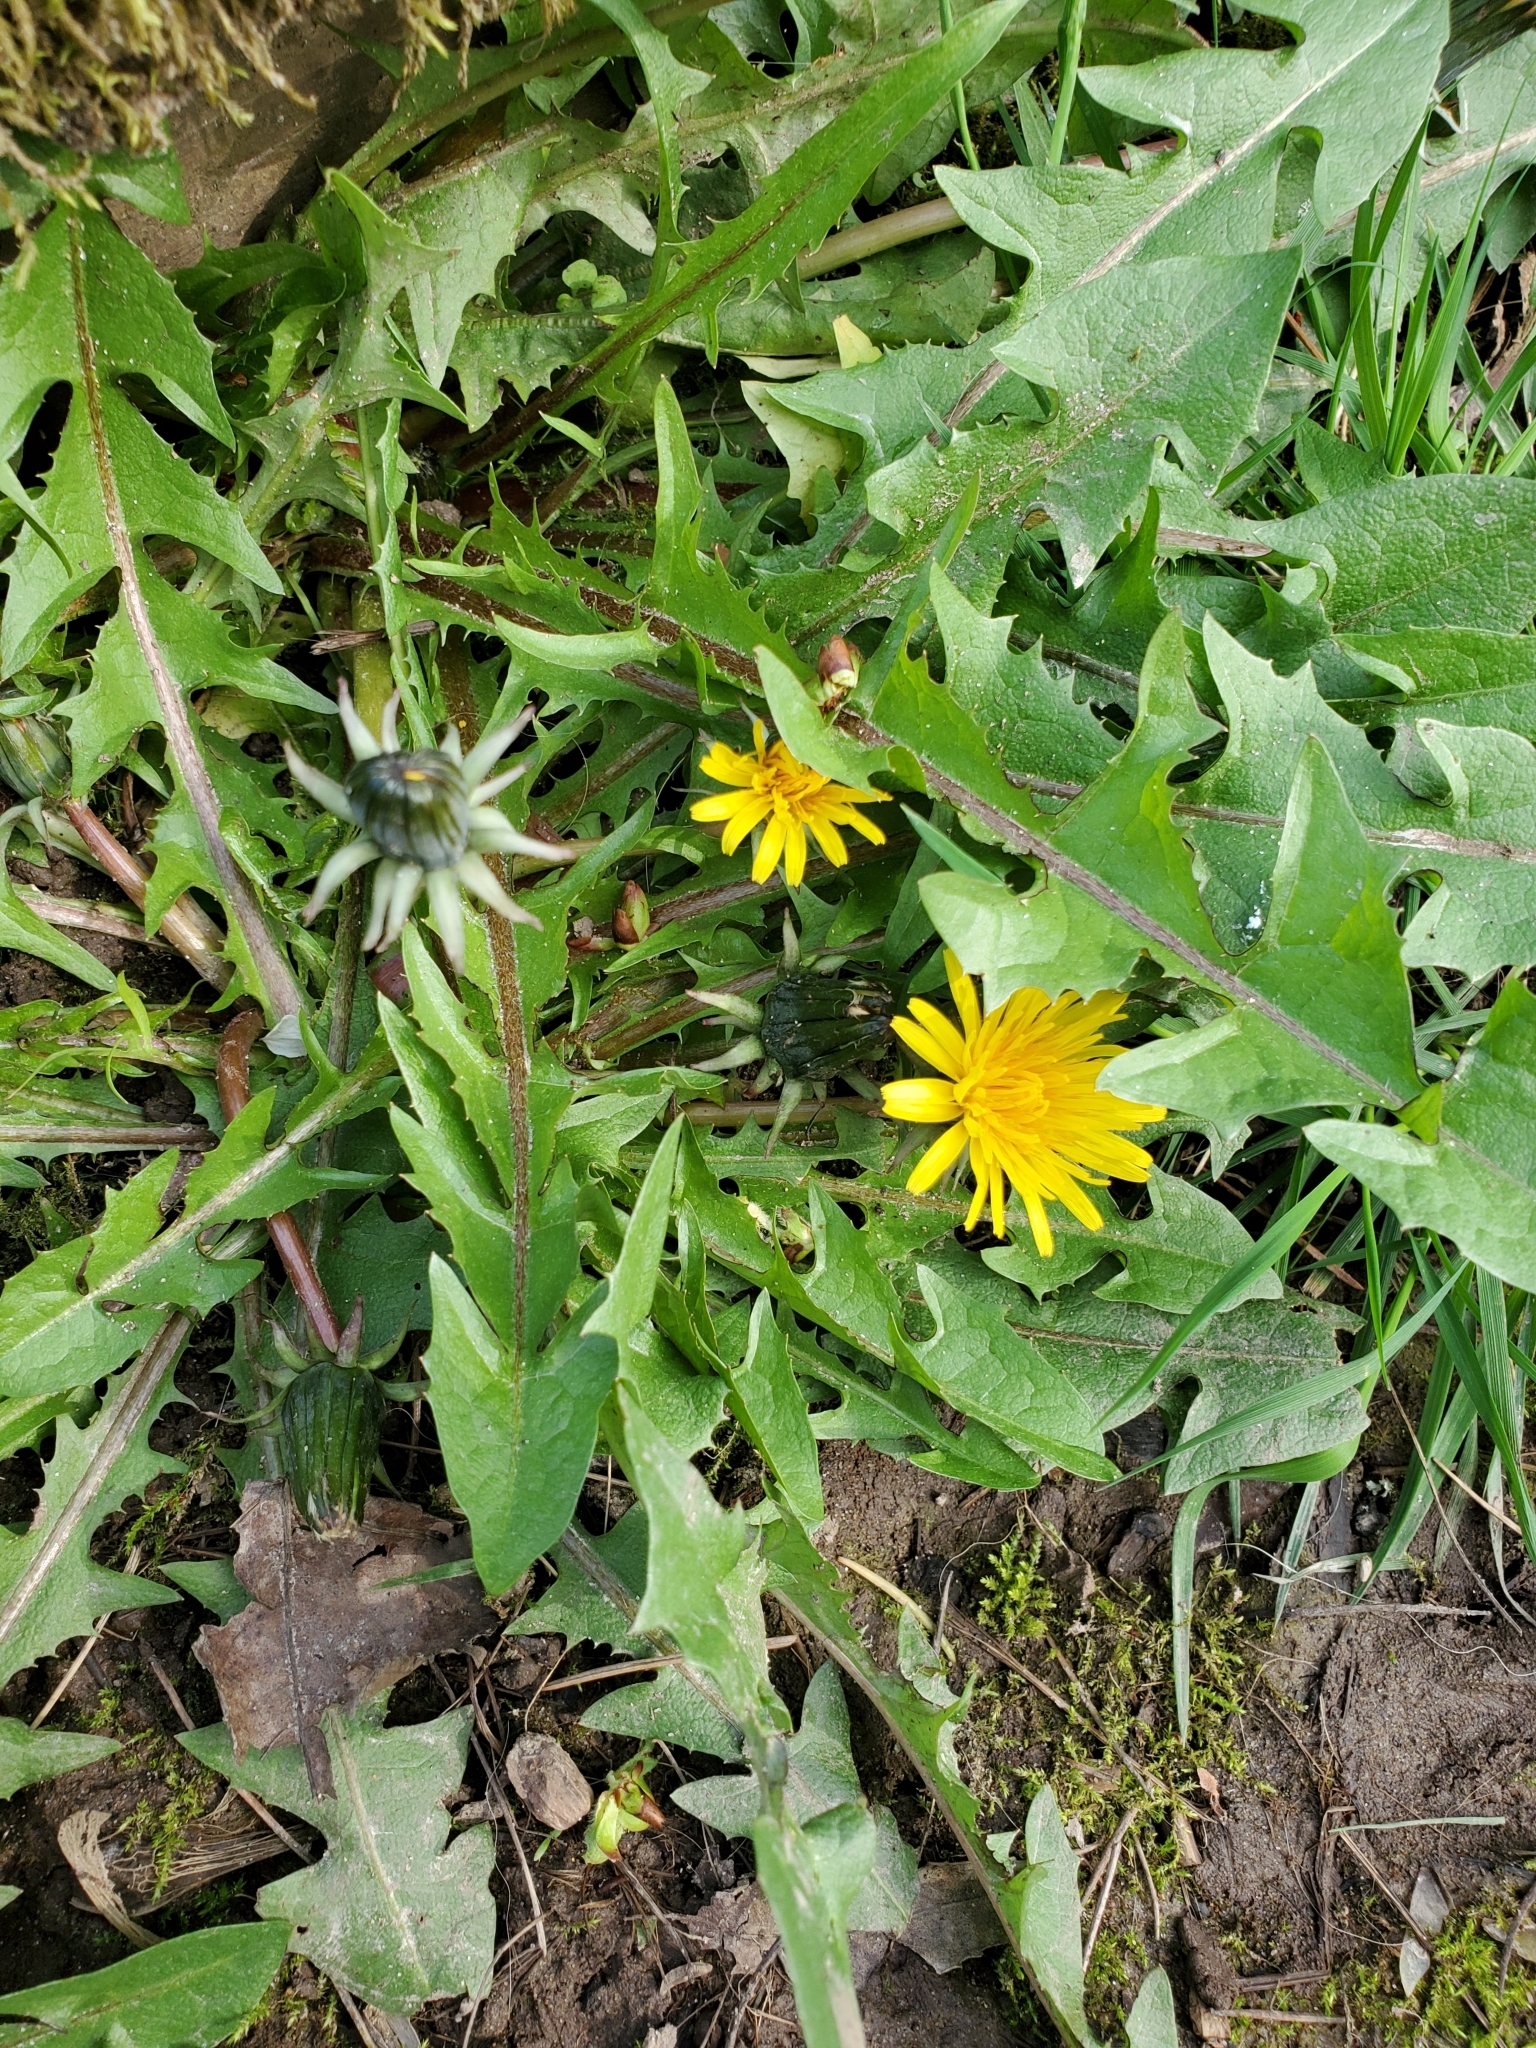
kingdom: Plantae
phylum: Tracheophyta
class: Magnoliopsida
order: Asterales
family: Asteraceae
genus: Taraxacum
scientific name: Taraxacum officinale
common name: Common dandelion
